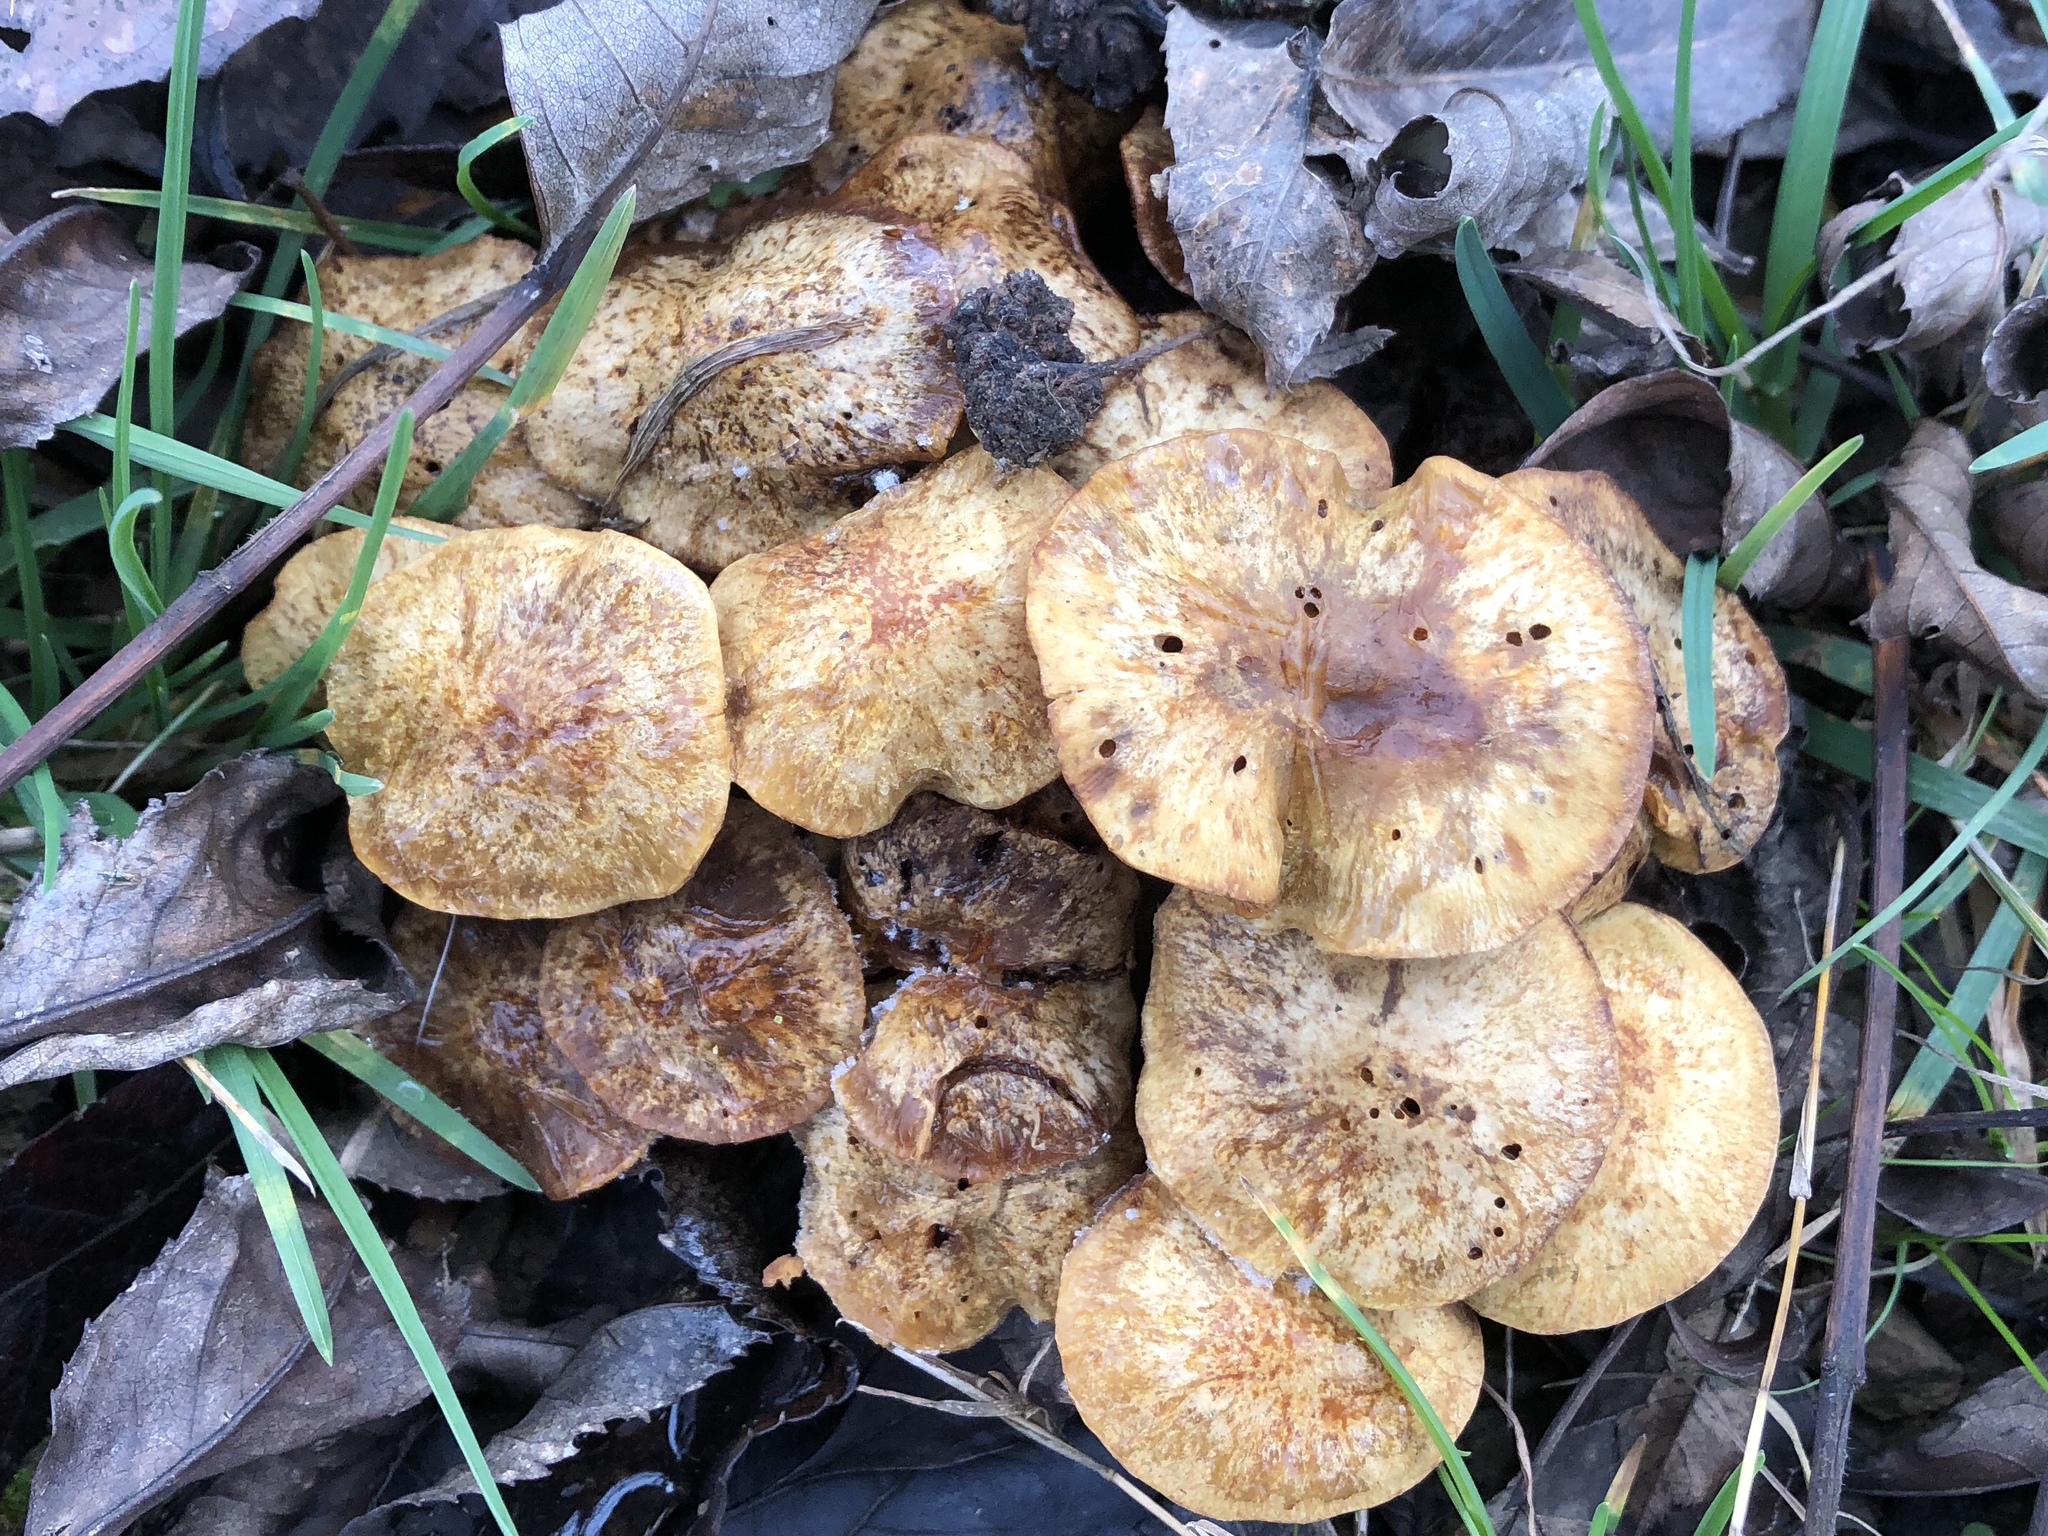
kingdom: Fungi
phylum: Basidiomycota
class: Agaricomycetes
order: Agaricales
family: Strophariaceae
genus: Pholiota
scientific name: Pholiota spumosa
